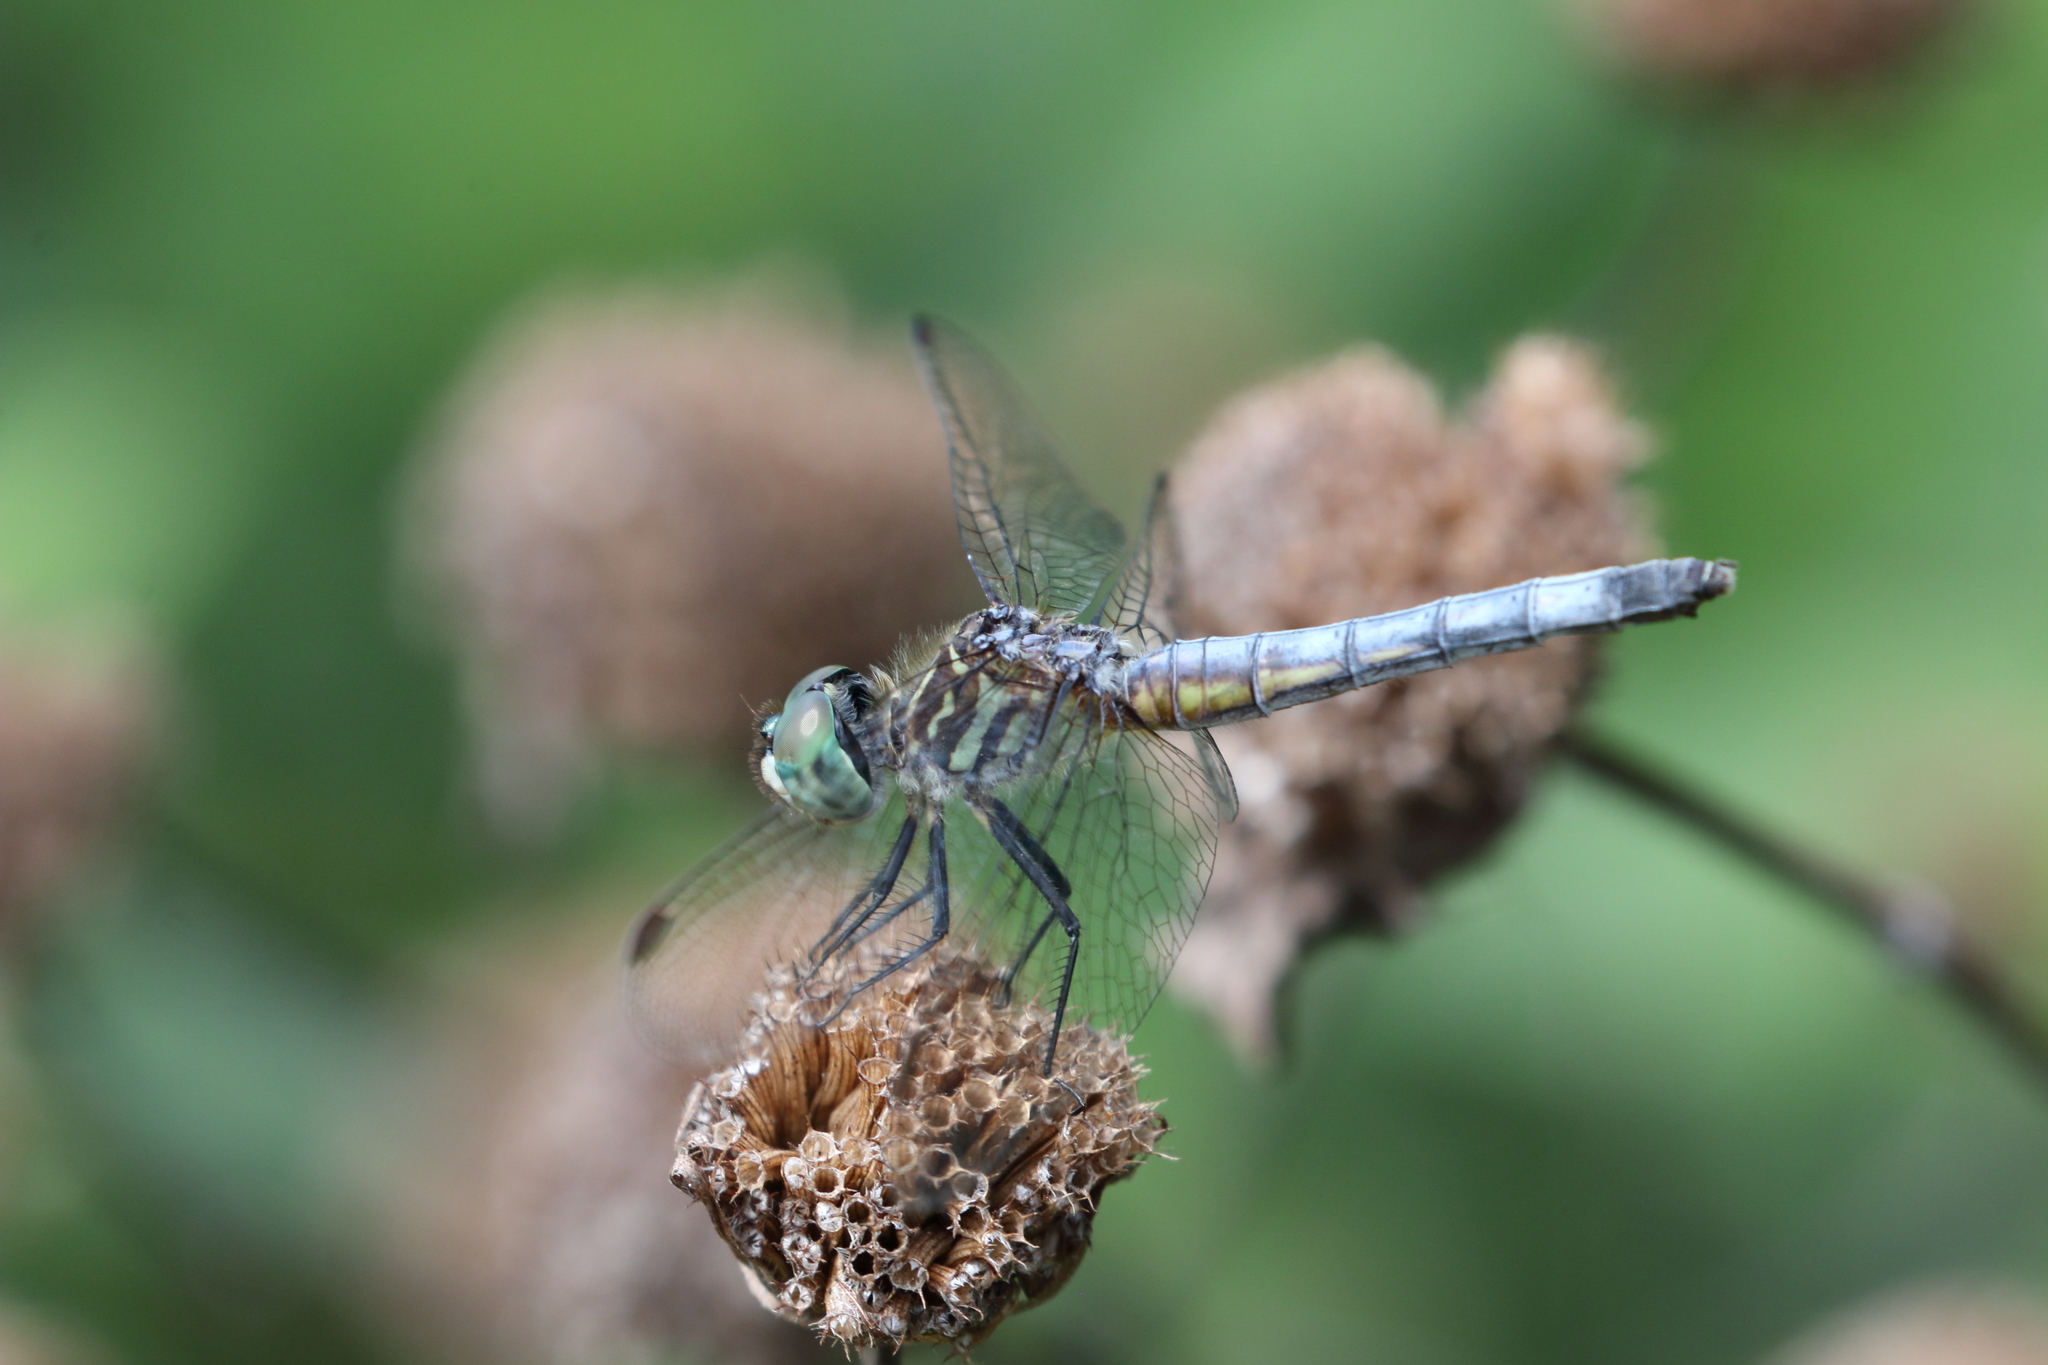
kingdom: Animalia
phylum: Arthropoda
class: Insecta
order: Odonata
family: Libellulidae
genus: Pachydiplax
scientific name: Pachydiplax longipennis
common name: Blue dasher
